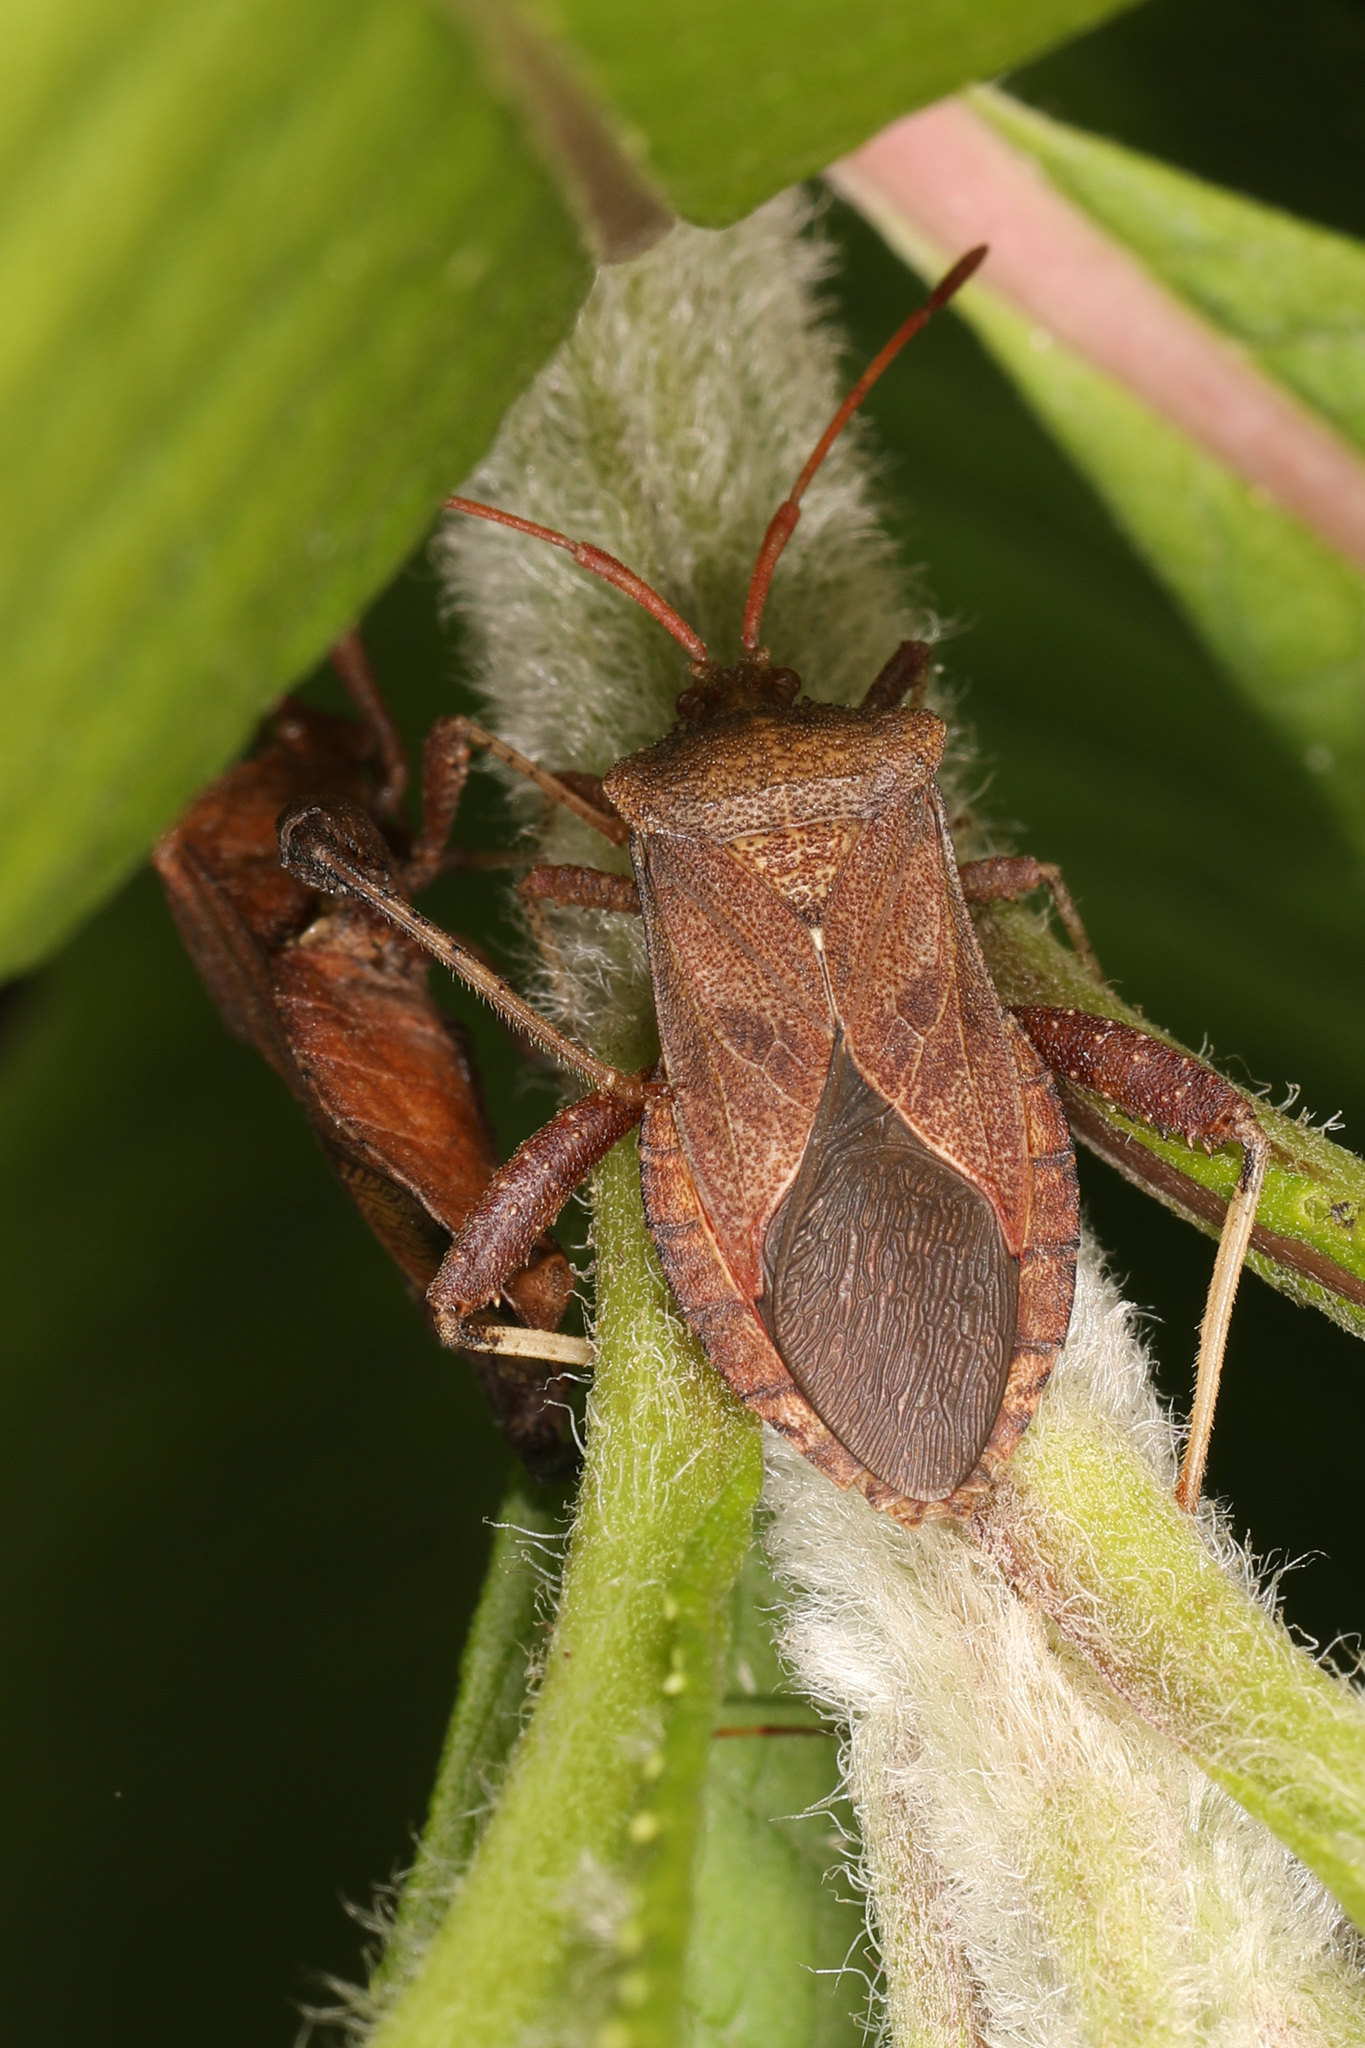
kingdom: Animalia
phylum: Arthropoda
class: Insecta
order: Hemiptera
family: Coreidae
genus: Euthochtha
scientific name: Euthochtha galeator
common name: Helmeted squash bug
